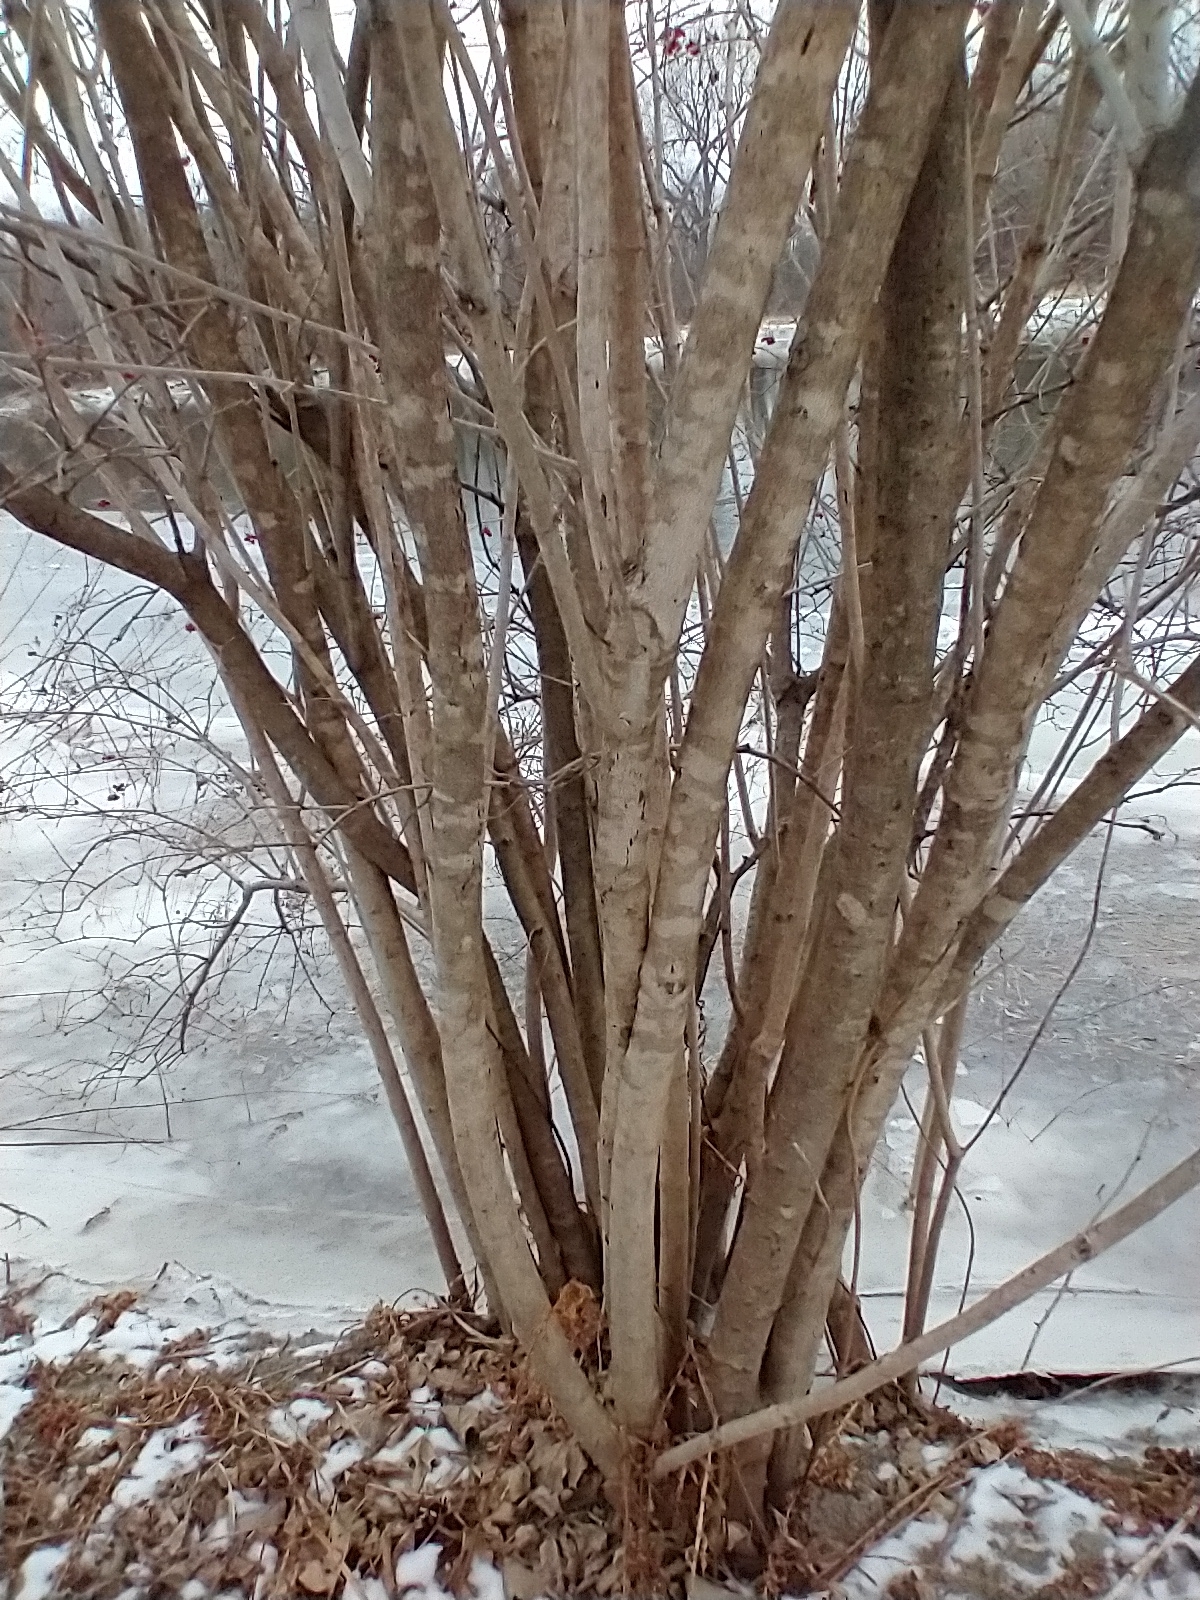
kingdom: Plantae
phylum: Tracheophyta
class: Magnoliopsida
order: Dipsacales
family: Viburnaceae
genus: Viburnum
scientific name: Viburnum opulus
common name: Guelder-rose
